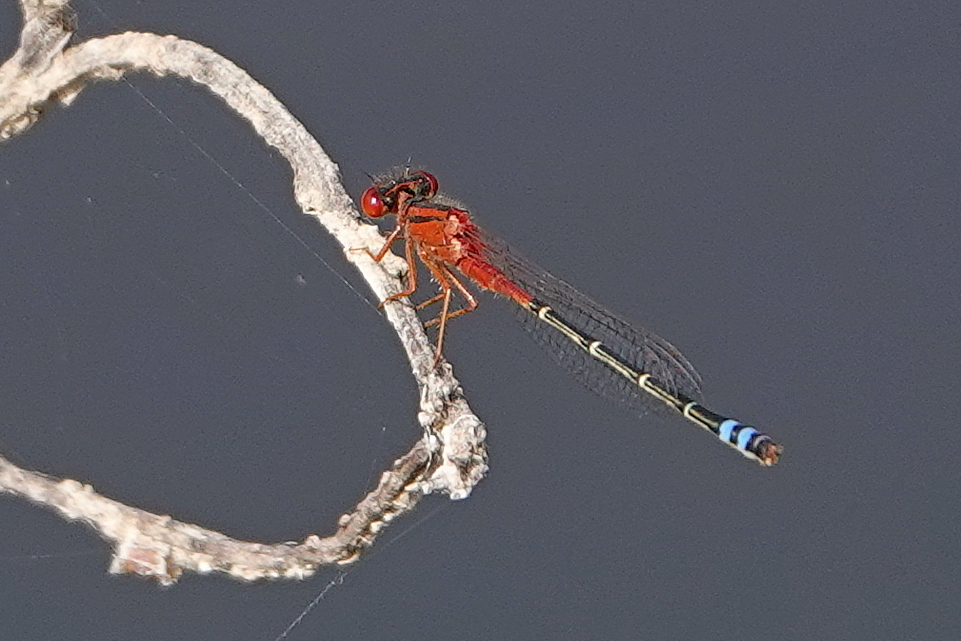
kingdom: Animalia
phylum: Arthropoda
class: Insecta
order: Odonata
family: Coenagrionidae
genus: Xanthagrion
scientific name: Xanthagrion erythroneurum
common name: Red and blue damsel
